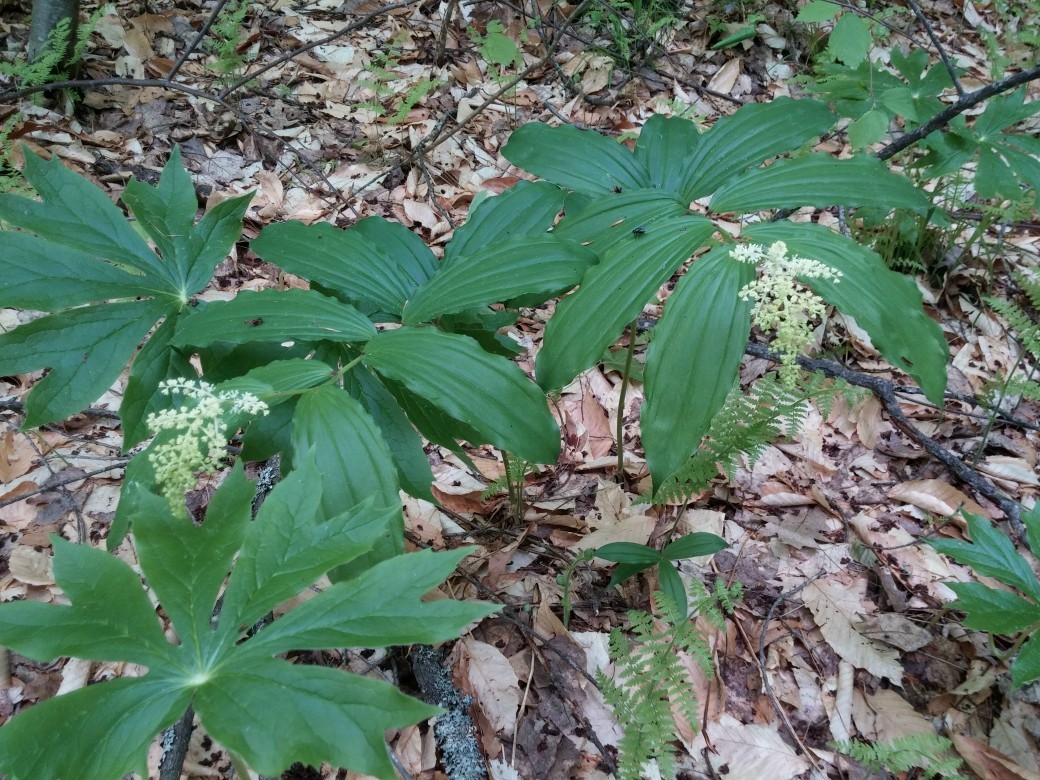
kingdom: Plantae
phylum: Tracheophyta
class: Liliopsida
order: Asparagales
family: Asparagaceae
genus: Maianthemum
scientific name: Maianthemum racemosum
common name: False spikenard
